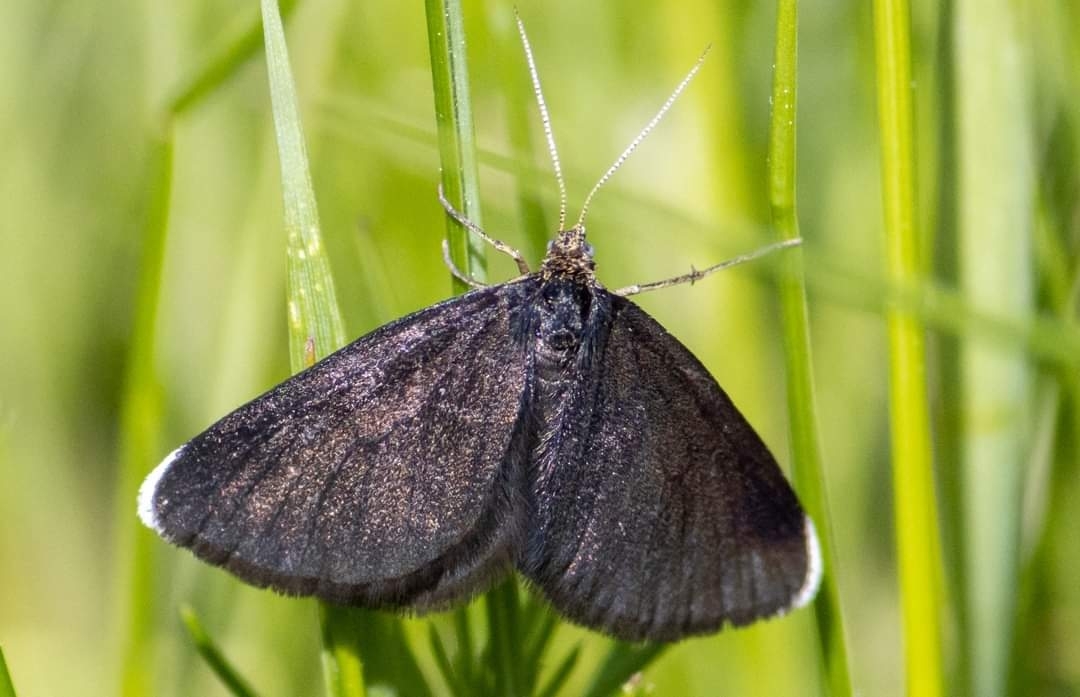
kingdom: Animalia
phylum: Arthropoda
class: Insecta
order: Lepidoptera
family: Geometridae
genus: Odezia
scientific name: Odezia atrata
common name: Chimney sweeper
